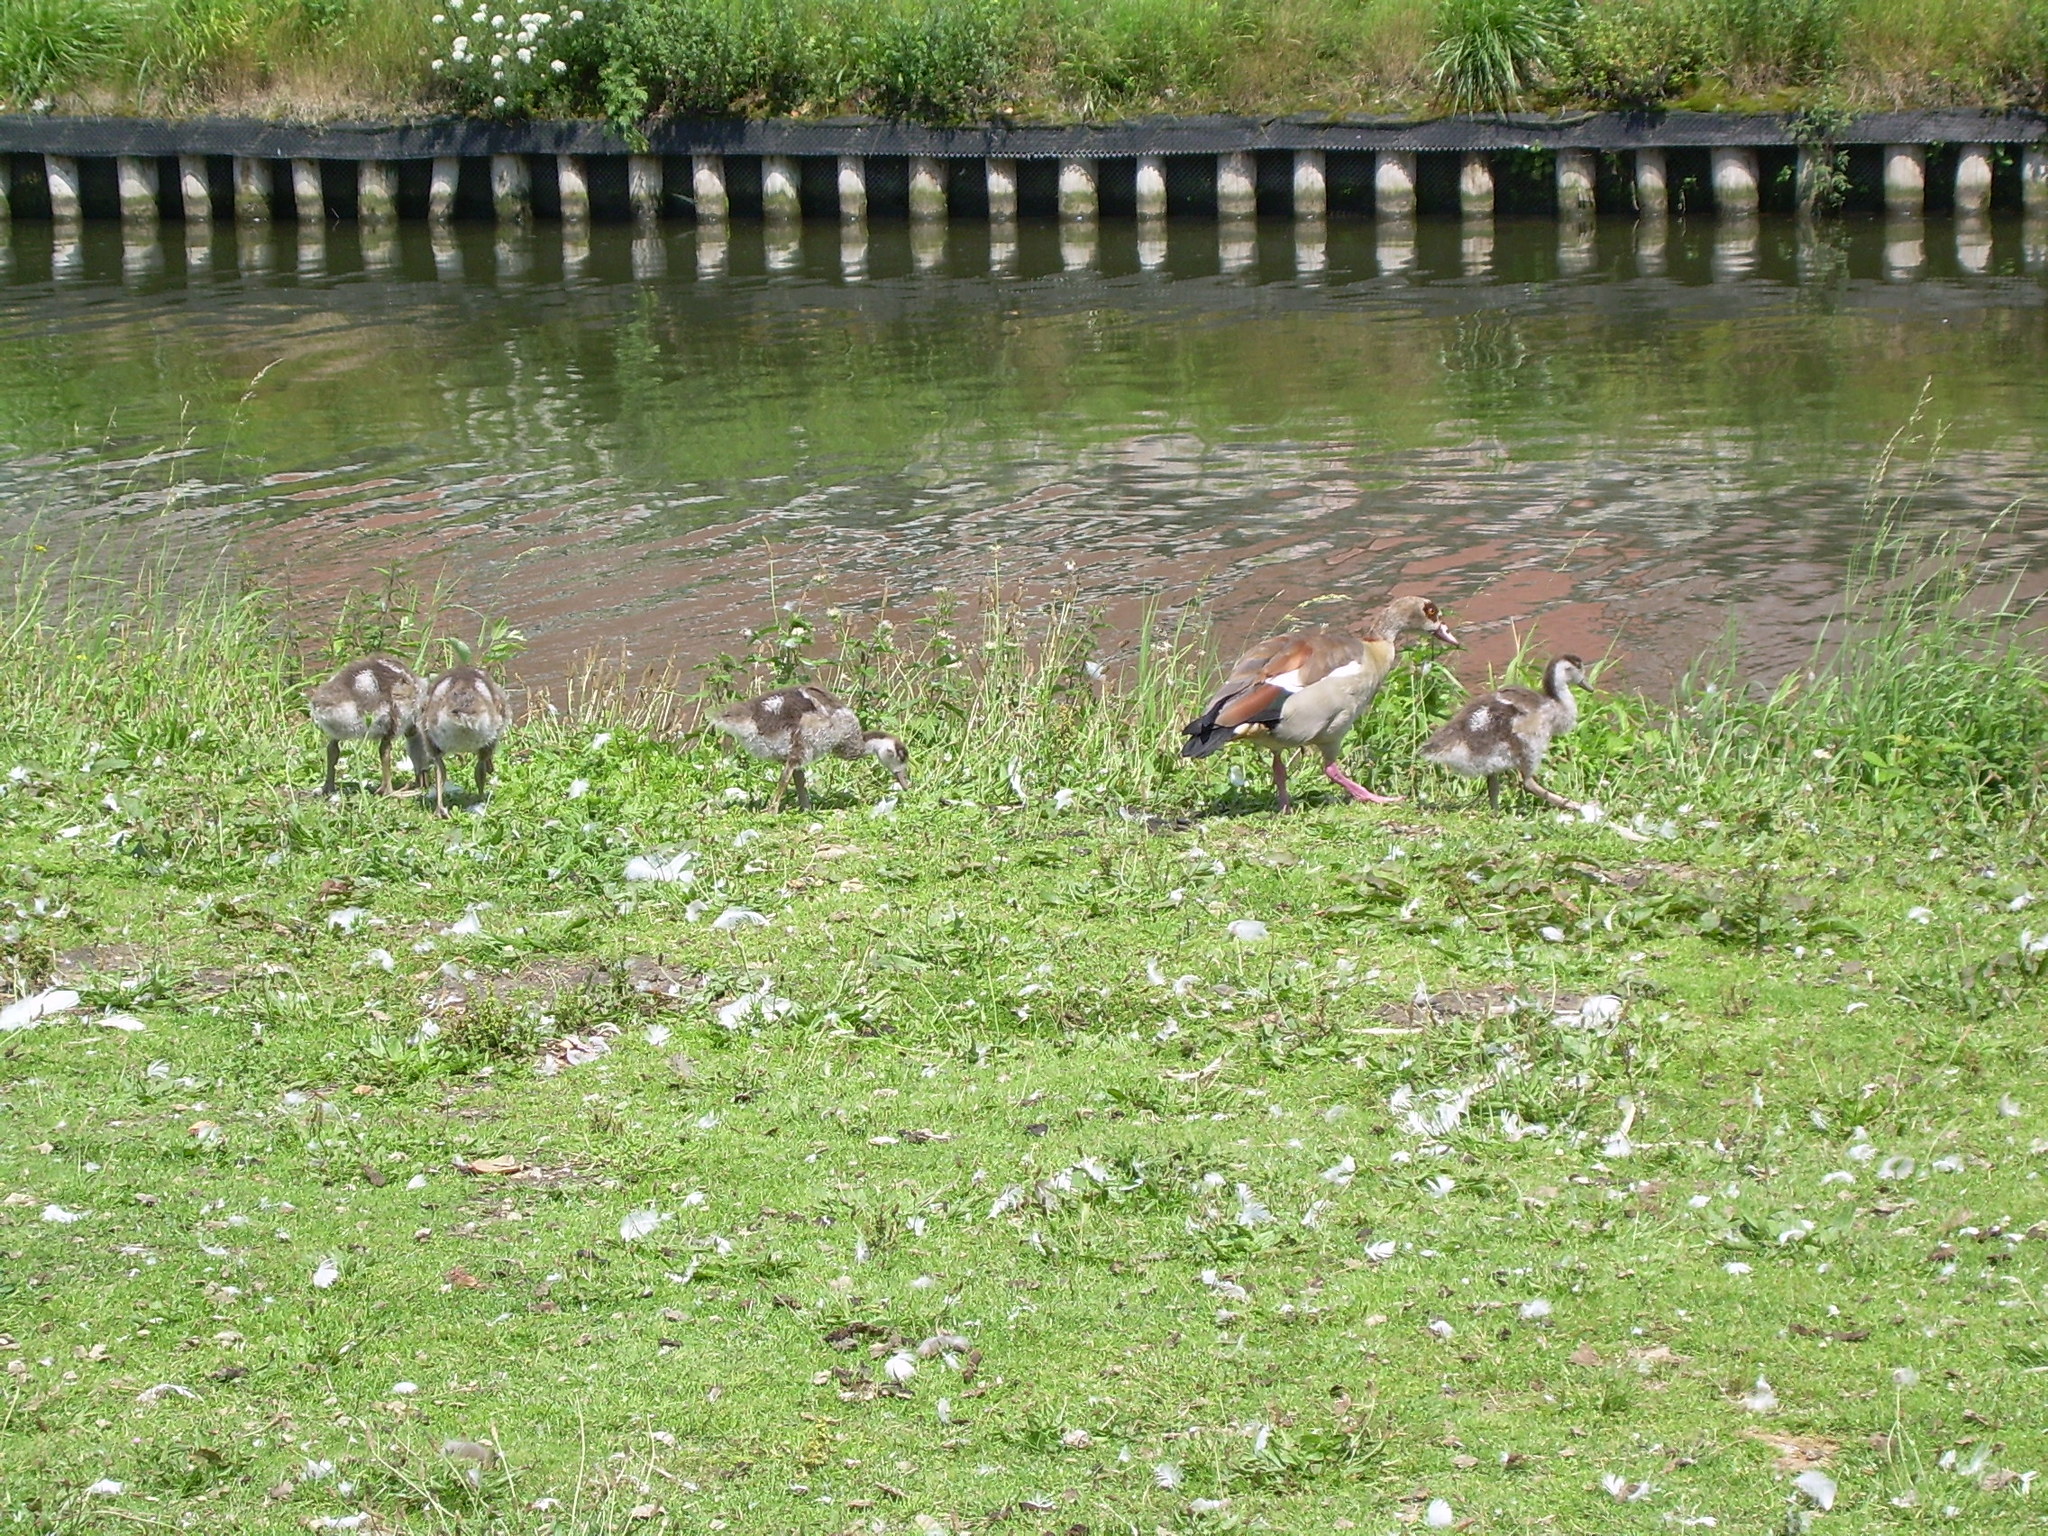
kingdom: Animalia
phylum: Chordata
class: Aves
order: Anseriformes
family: Anatidae
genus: Alopochen
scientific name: Alopochen aegyptiaca
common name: Egyptian goose
